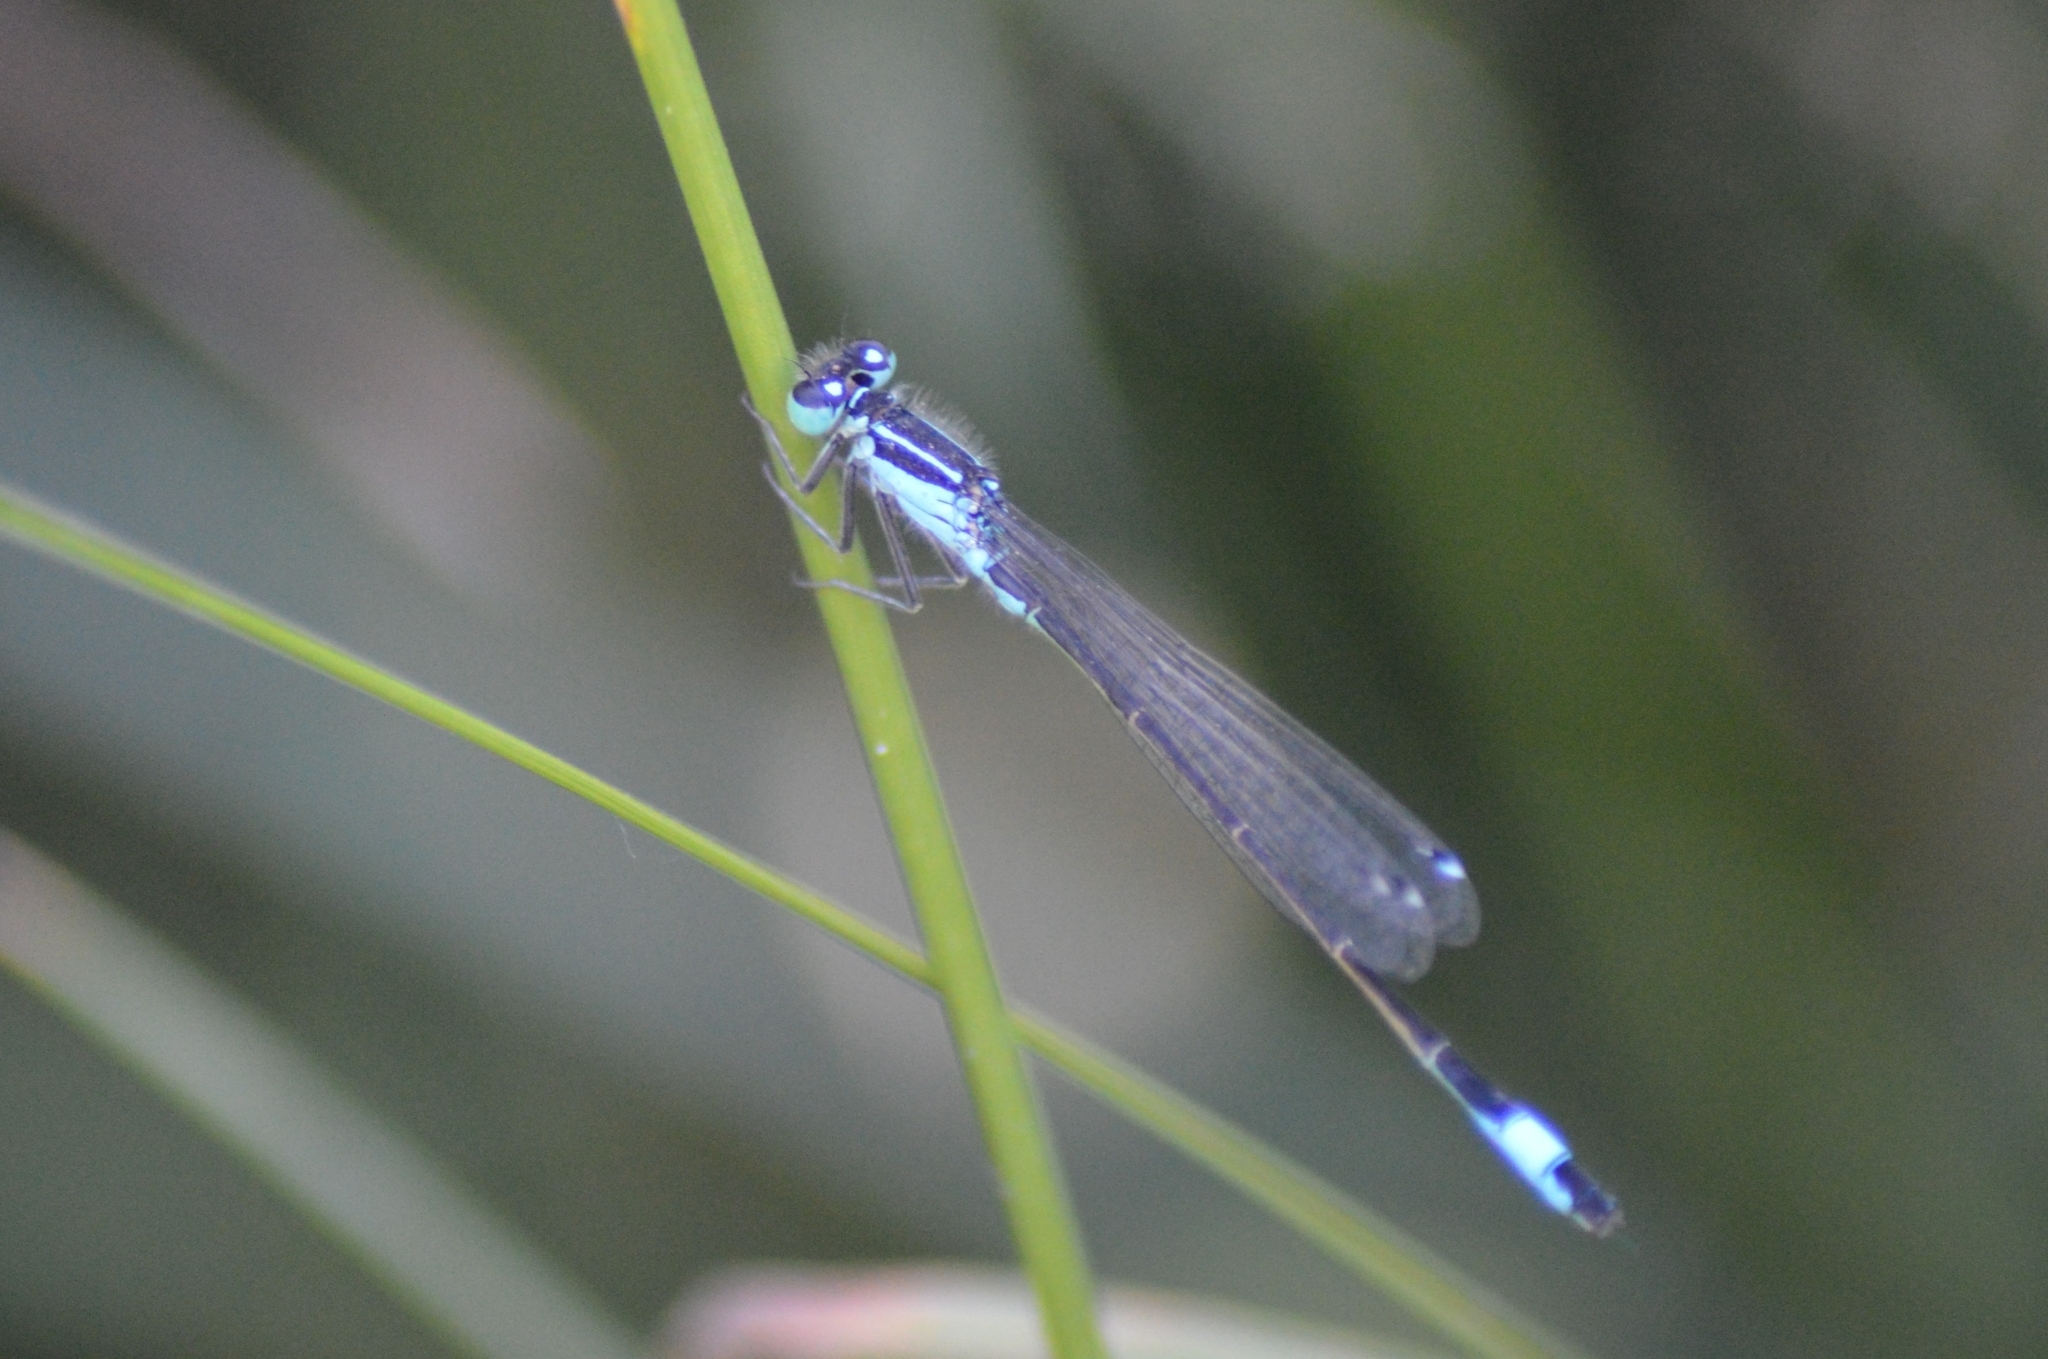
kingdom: Animalia
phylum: Arthropoda
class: Insecta
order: Odonata
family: Coenagrionidae
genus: Ischnura
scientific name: Ischnura elegans
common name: Blue-tailed damselfly
